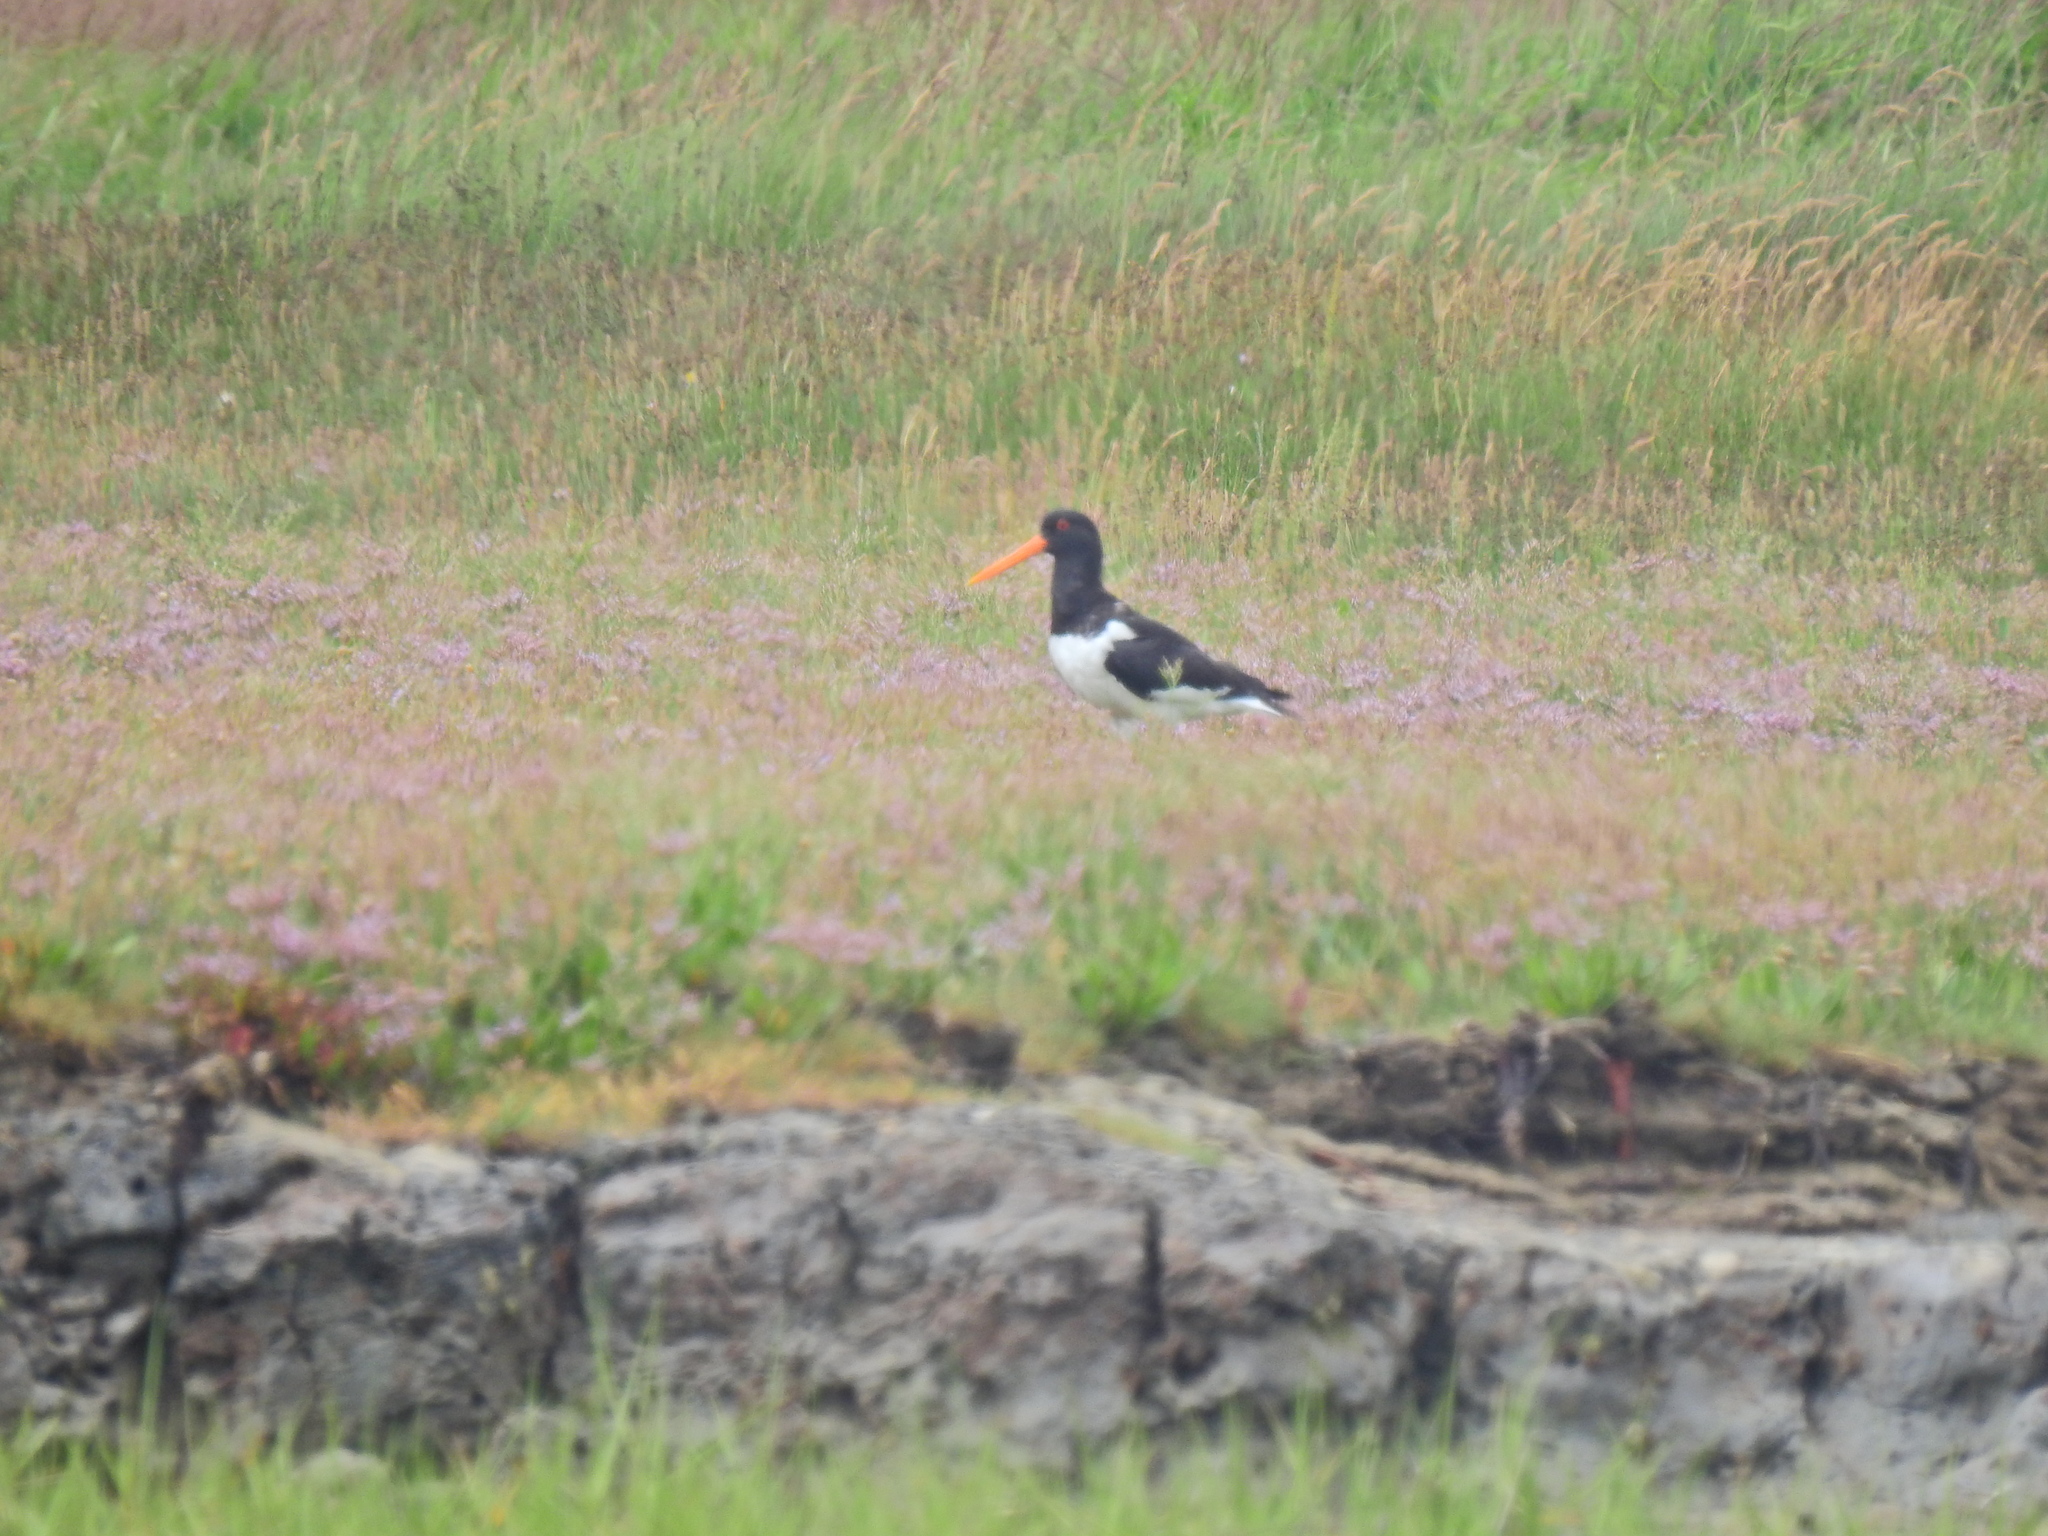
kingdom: Animalia
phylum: Chordata
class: Aves
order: Charadriiformes
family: Haematopodidae
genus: Haematopus
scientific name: Haematopus ostralegus
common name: Eurasian oystercatcher
